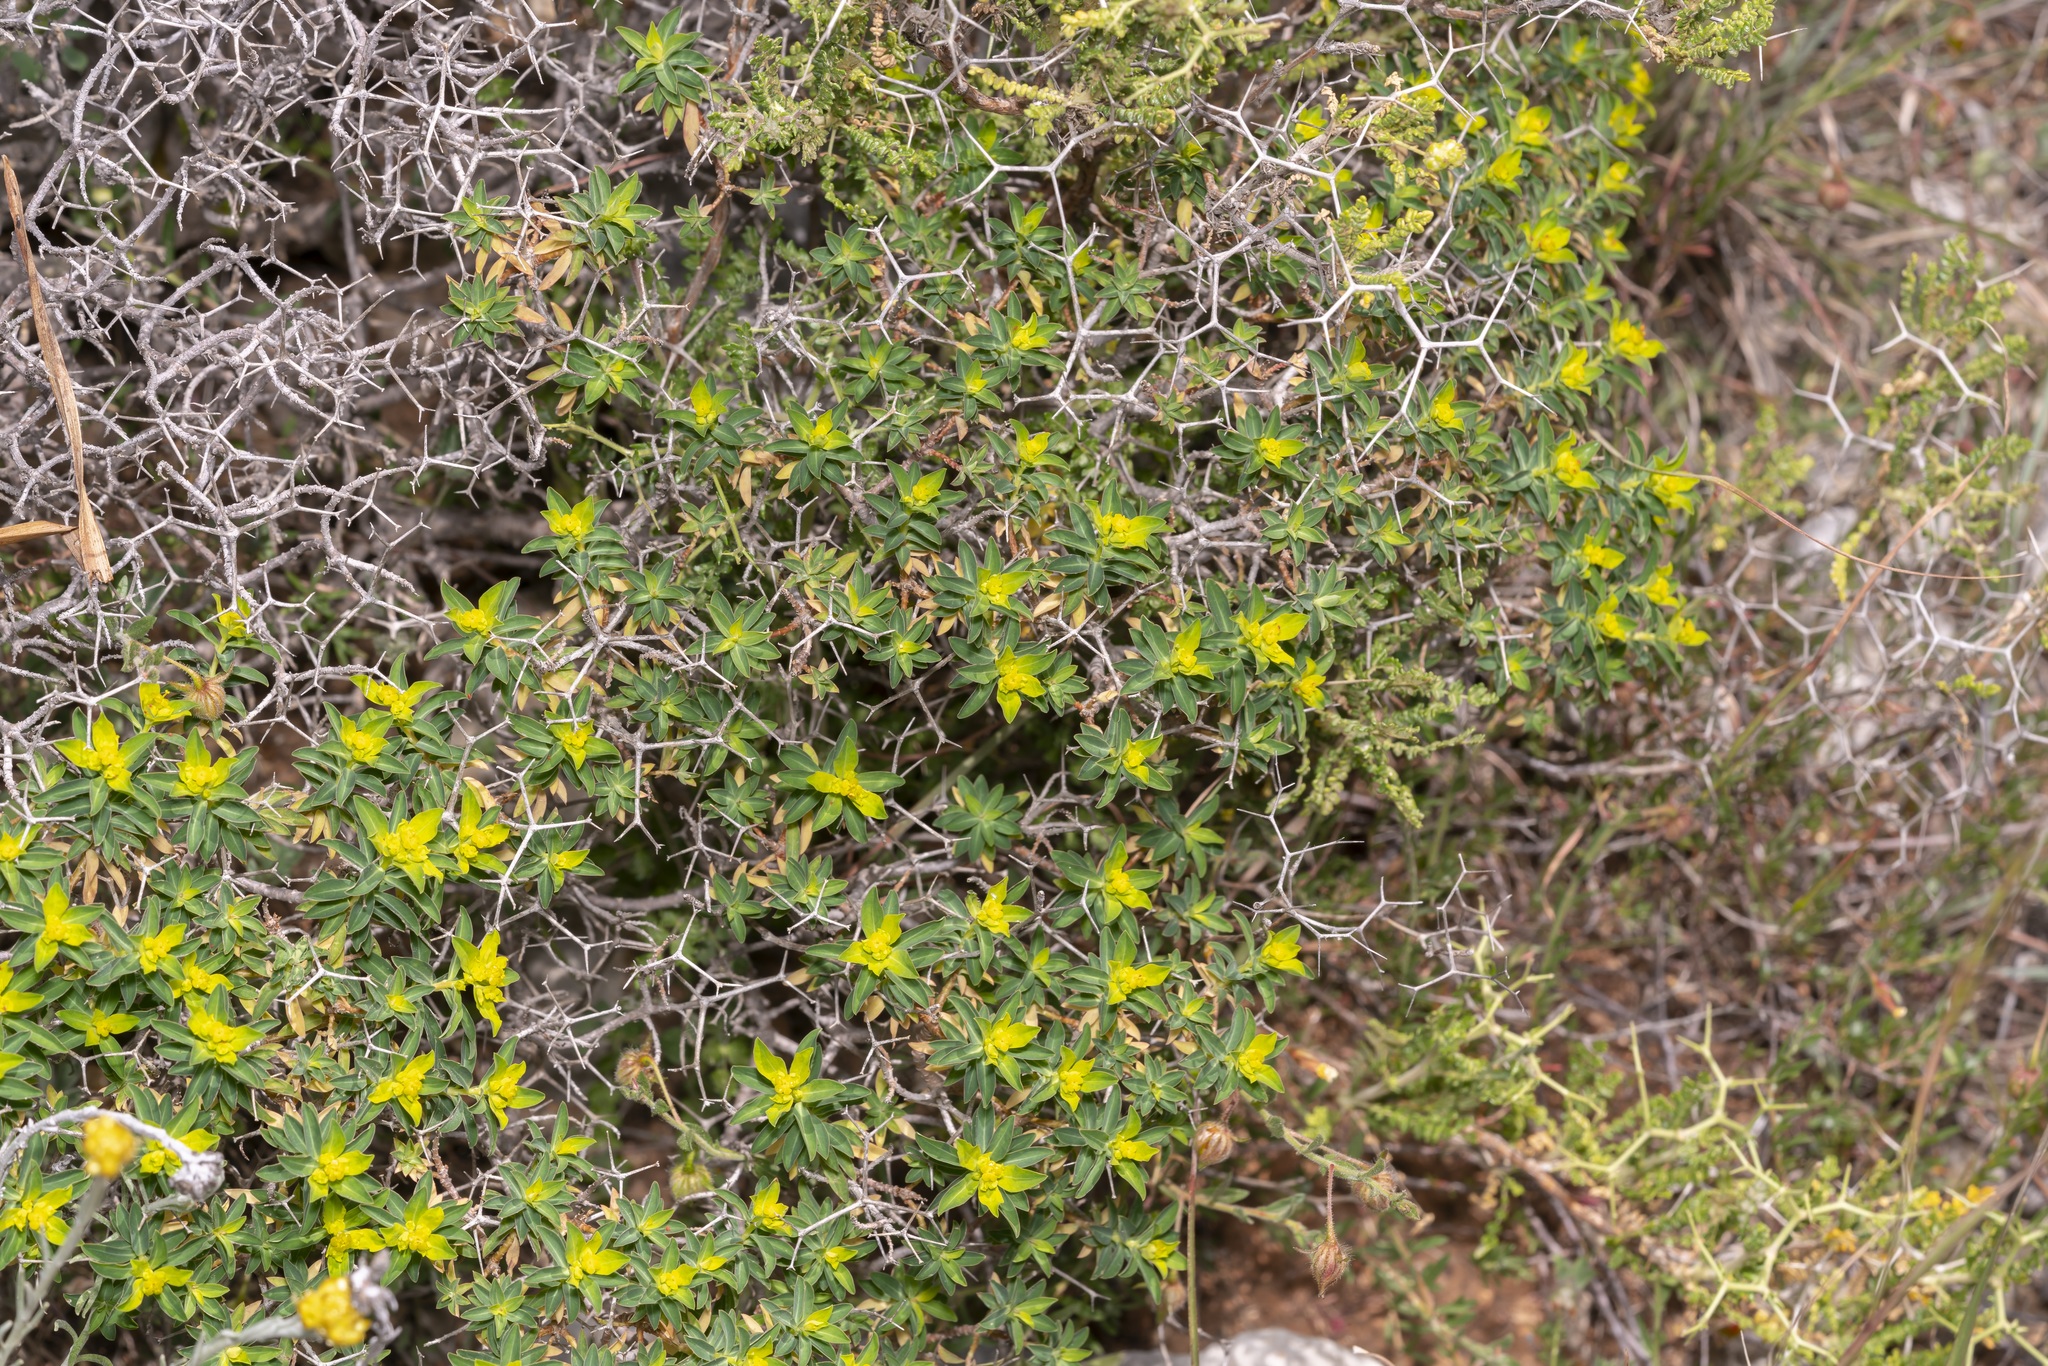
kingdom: Plantae
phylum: Tracheophyta
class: Magnoliopsida
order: Malpighiales
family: Euphorbiaceae
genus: Euphorbia
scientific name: Euphorbia acanthothamnos
